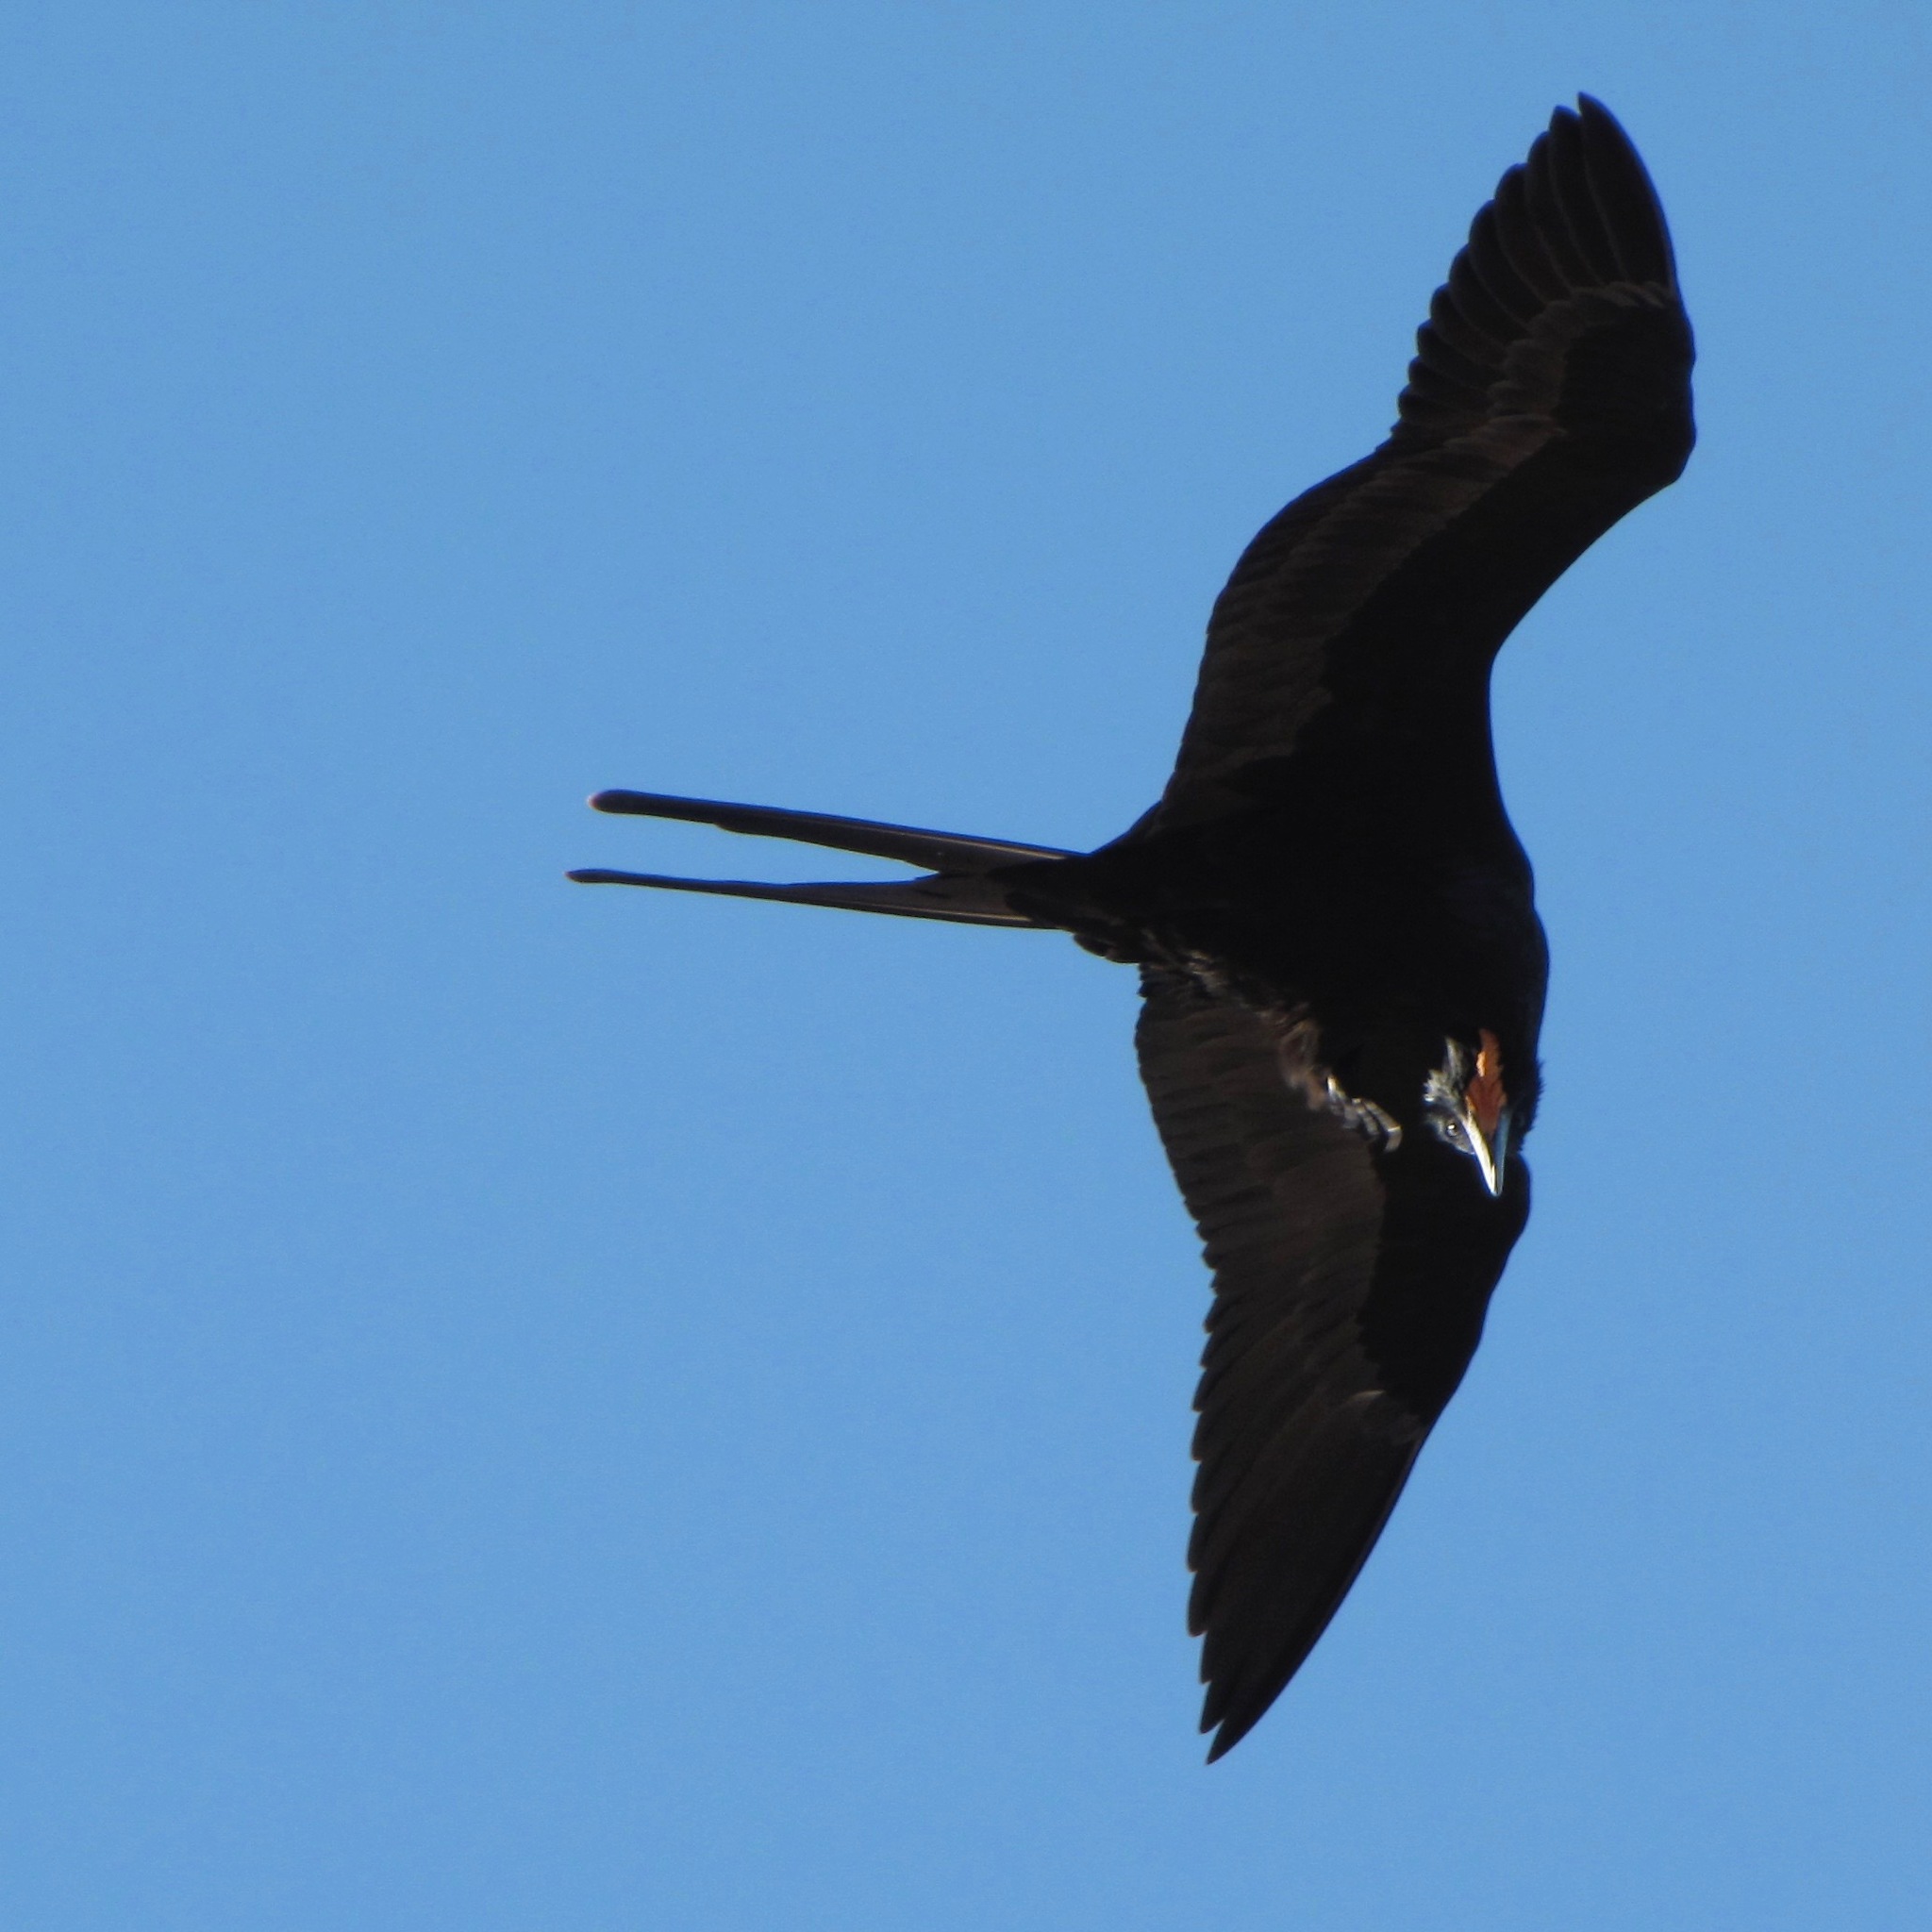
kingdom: Animalia
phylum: Chordata
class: Aves
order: Suliformes
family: Fregatidae
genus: Fregata
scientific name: Fregata magnificens
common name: Magnificent frigatebird
